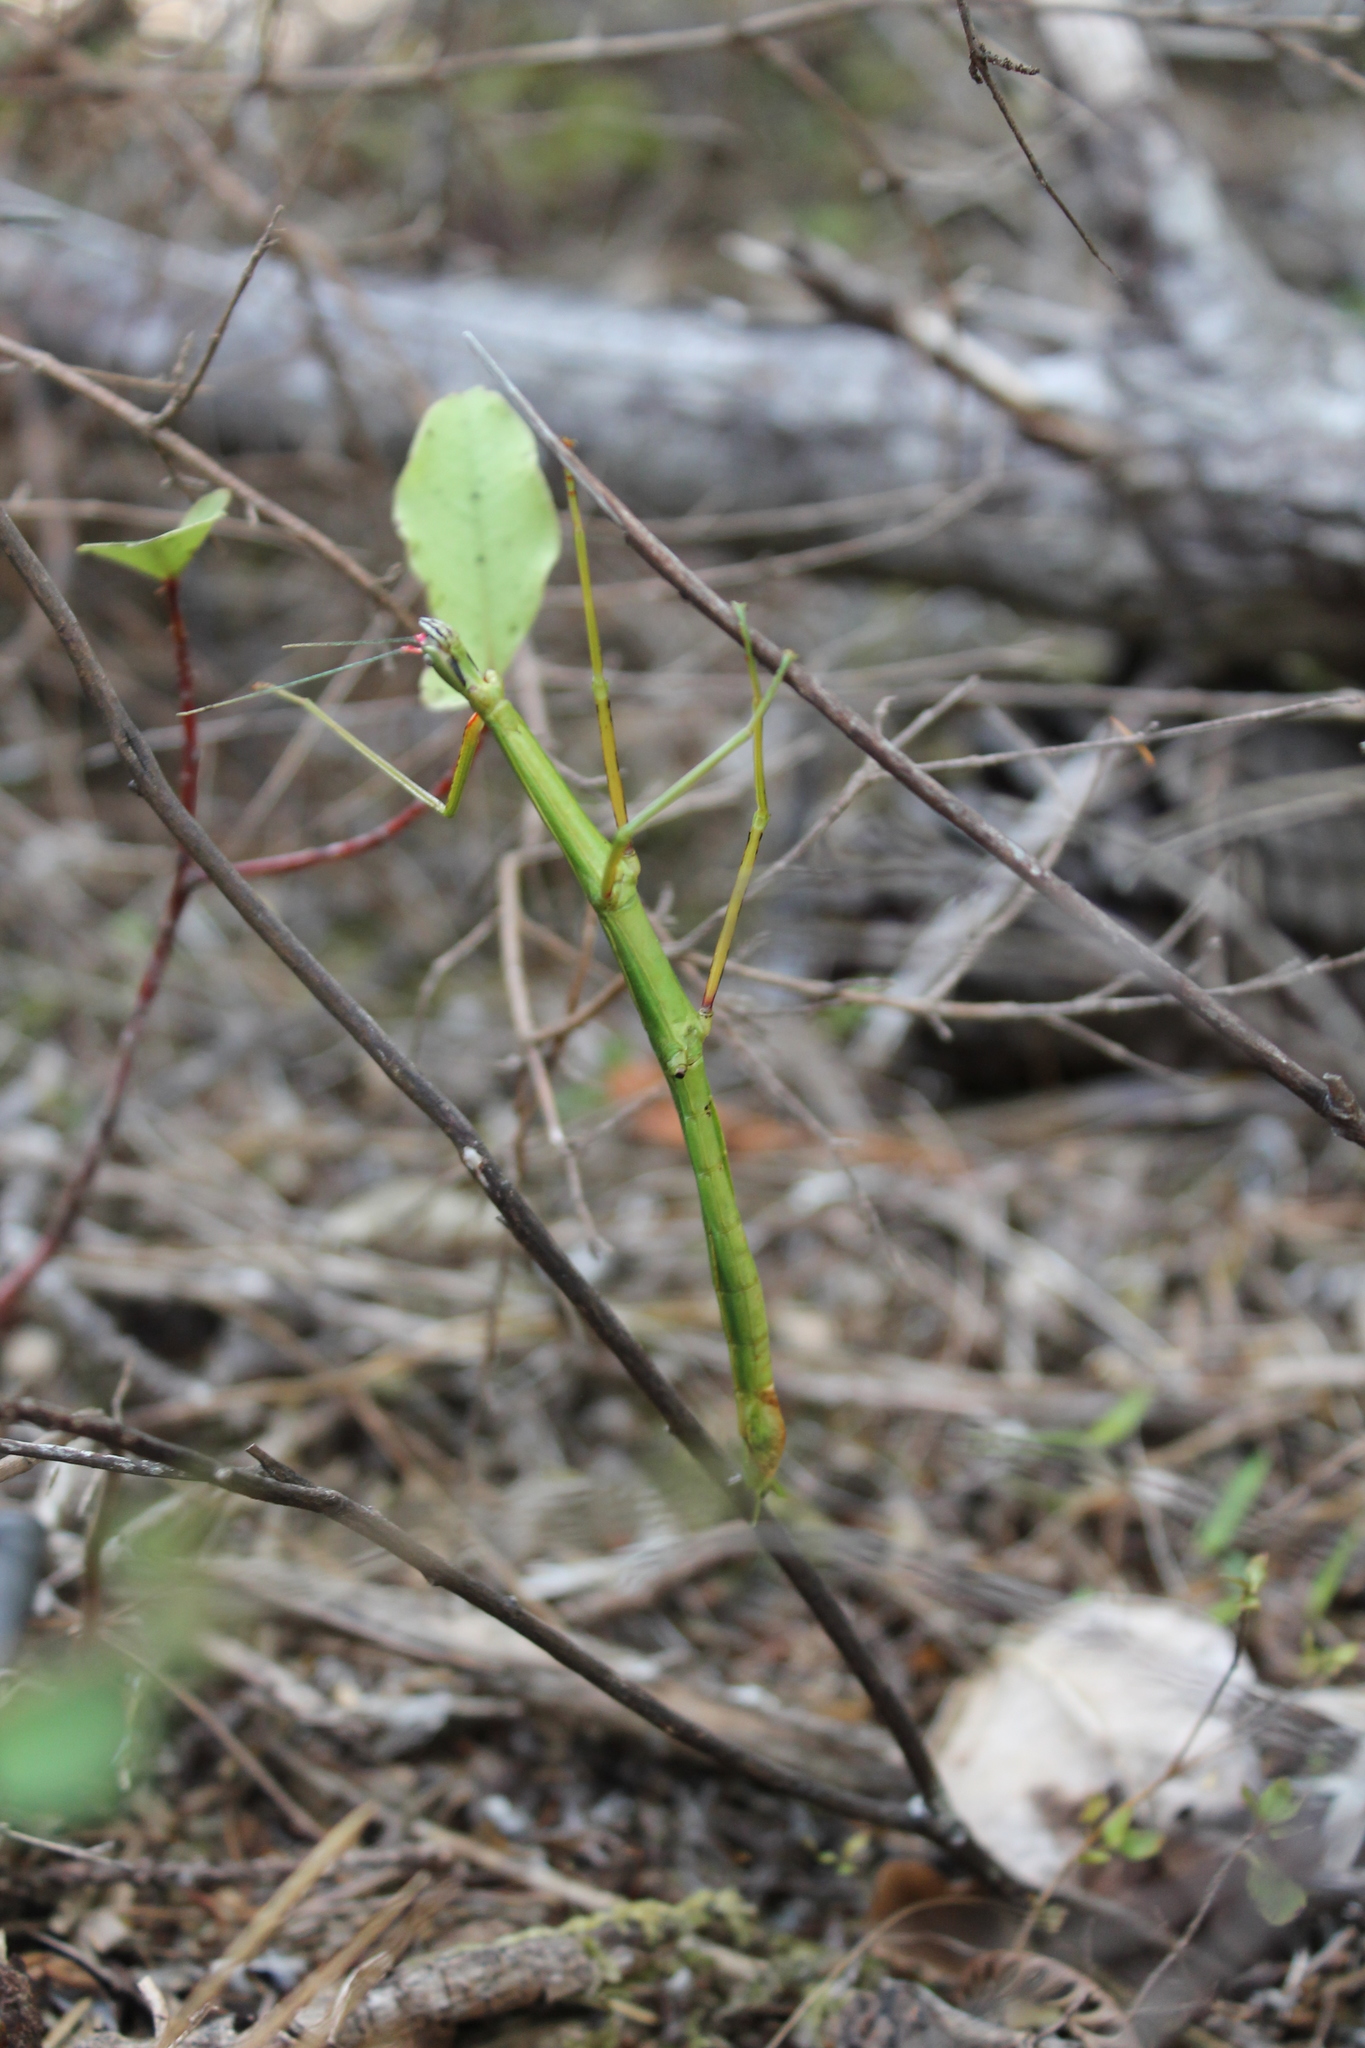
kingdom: Animalia
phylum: Arthropoda
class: Insecta
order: Phasmida
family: Phasmatidae
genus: Clitarchus
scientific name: Clitarchus hookeri
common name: Smooth stick insect
